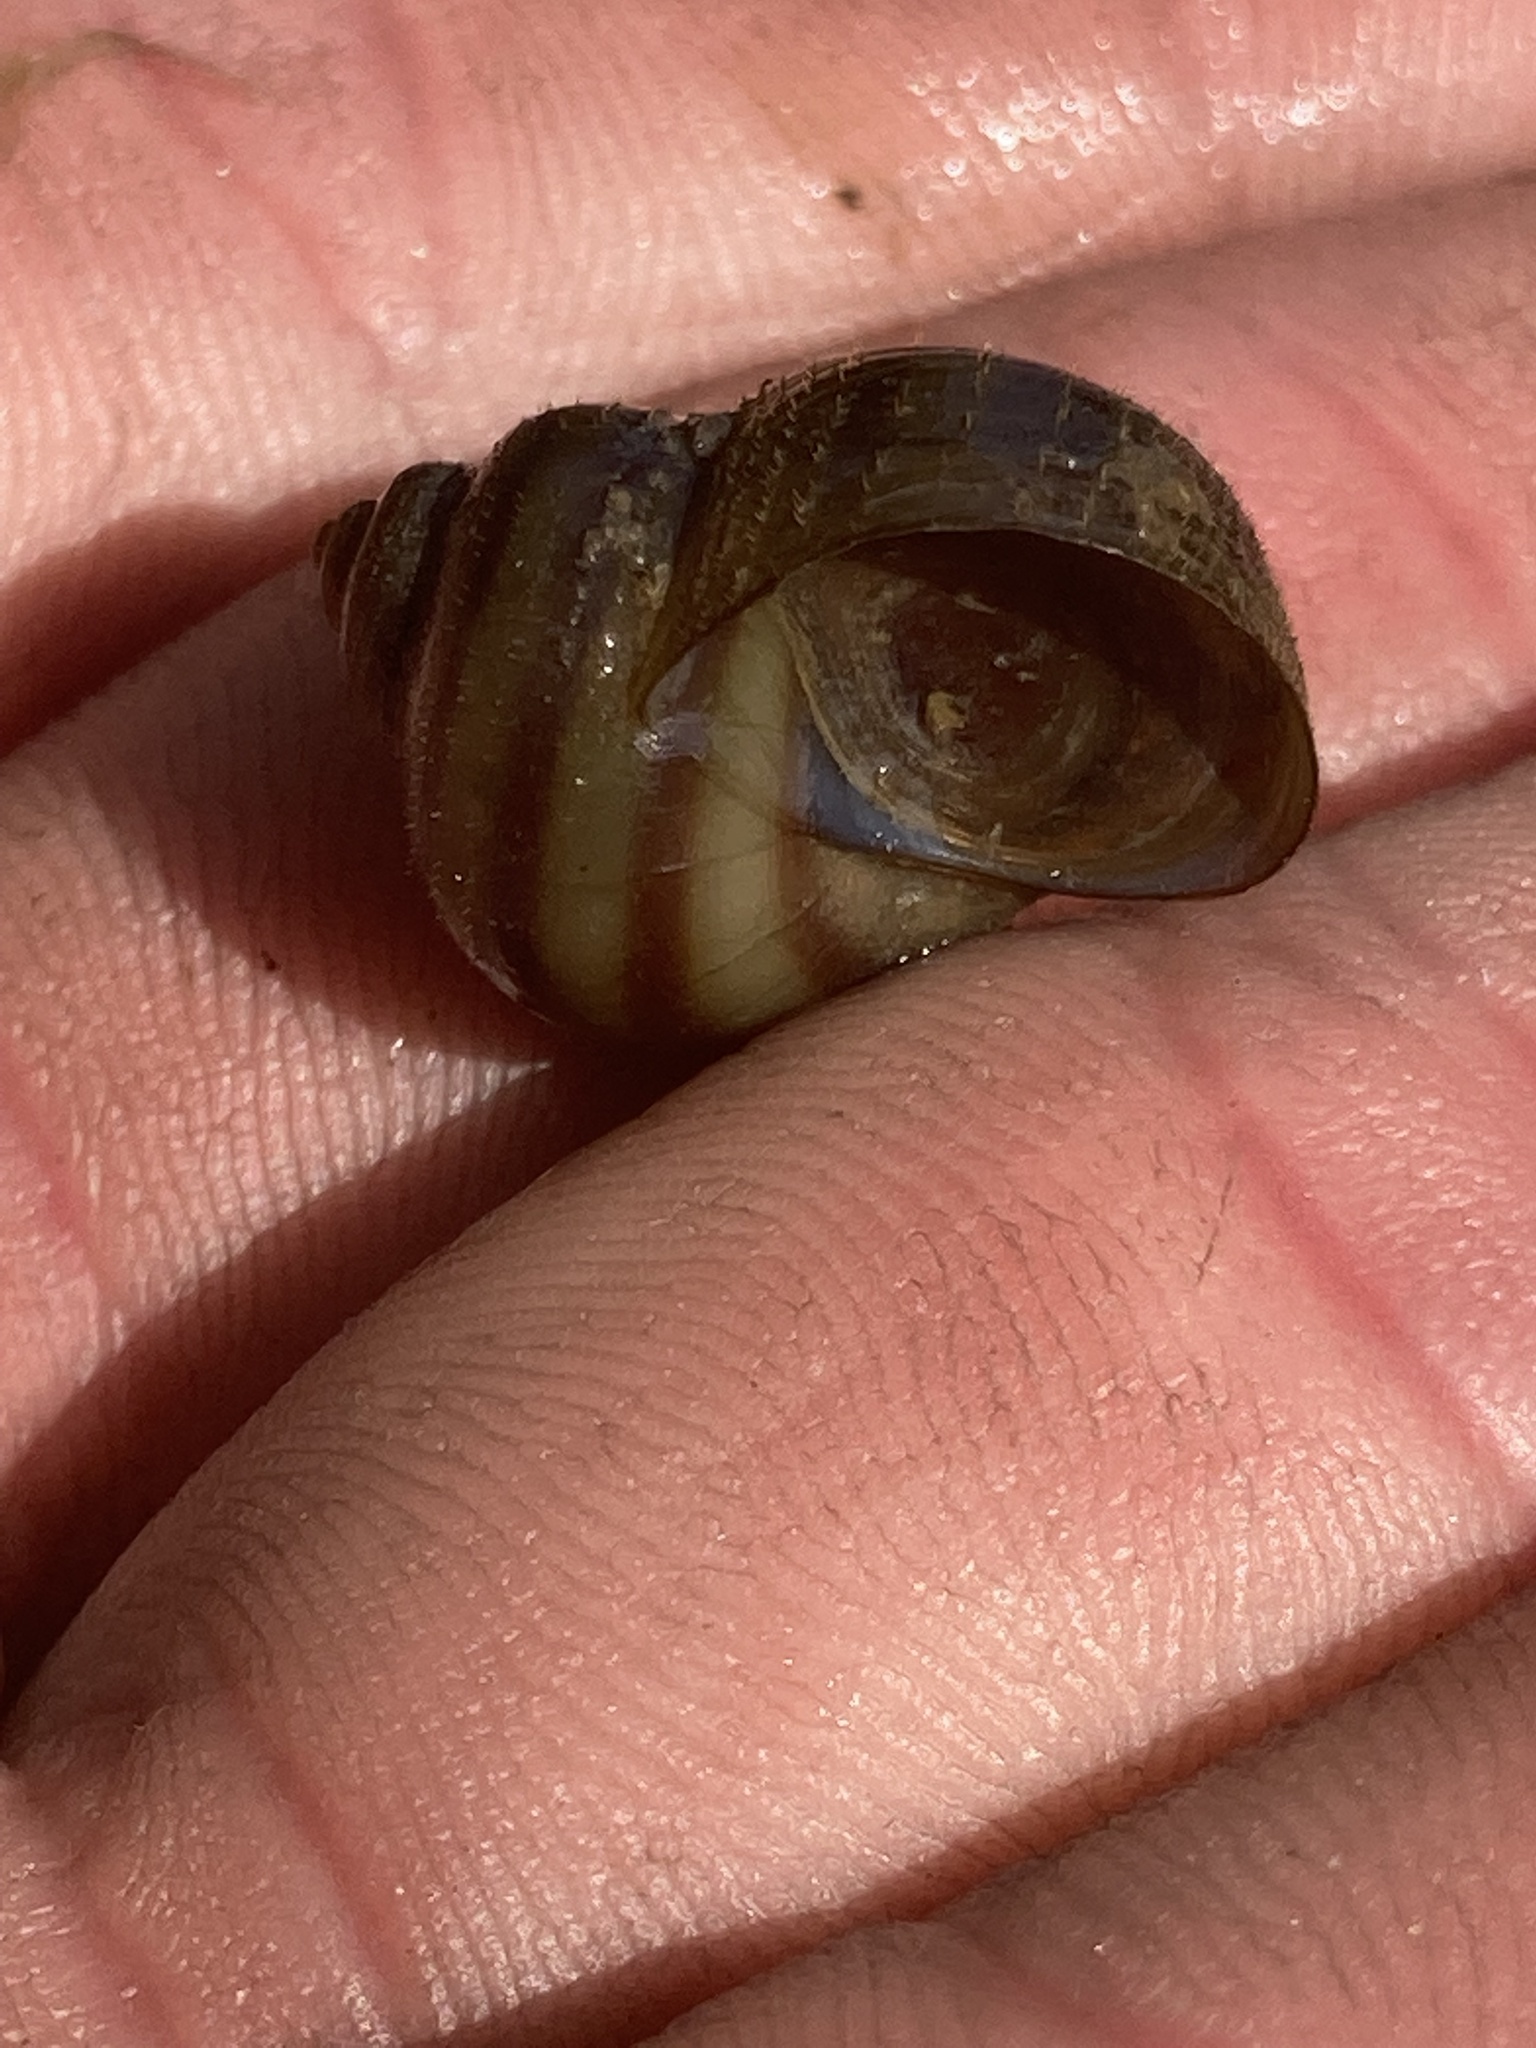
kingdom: Animalia
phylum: Mollusca
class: Gastropoda
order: Architaenioglossa
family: Viviparidae
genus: Callinina
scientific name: Callinina georgiana
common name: Banded mystery snail
